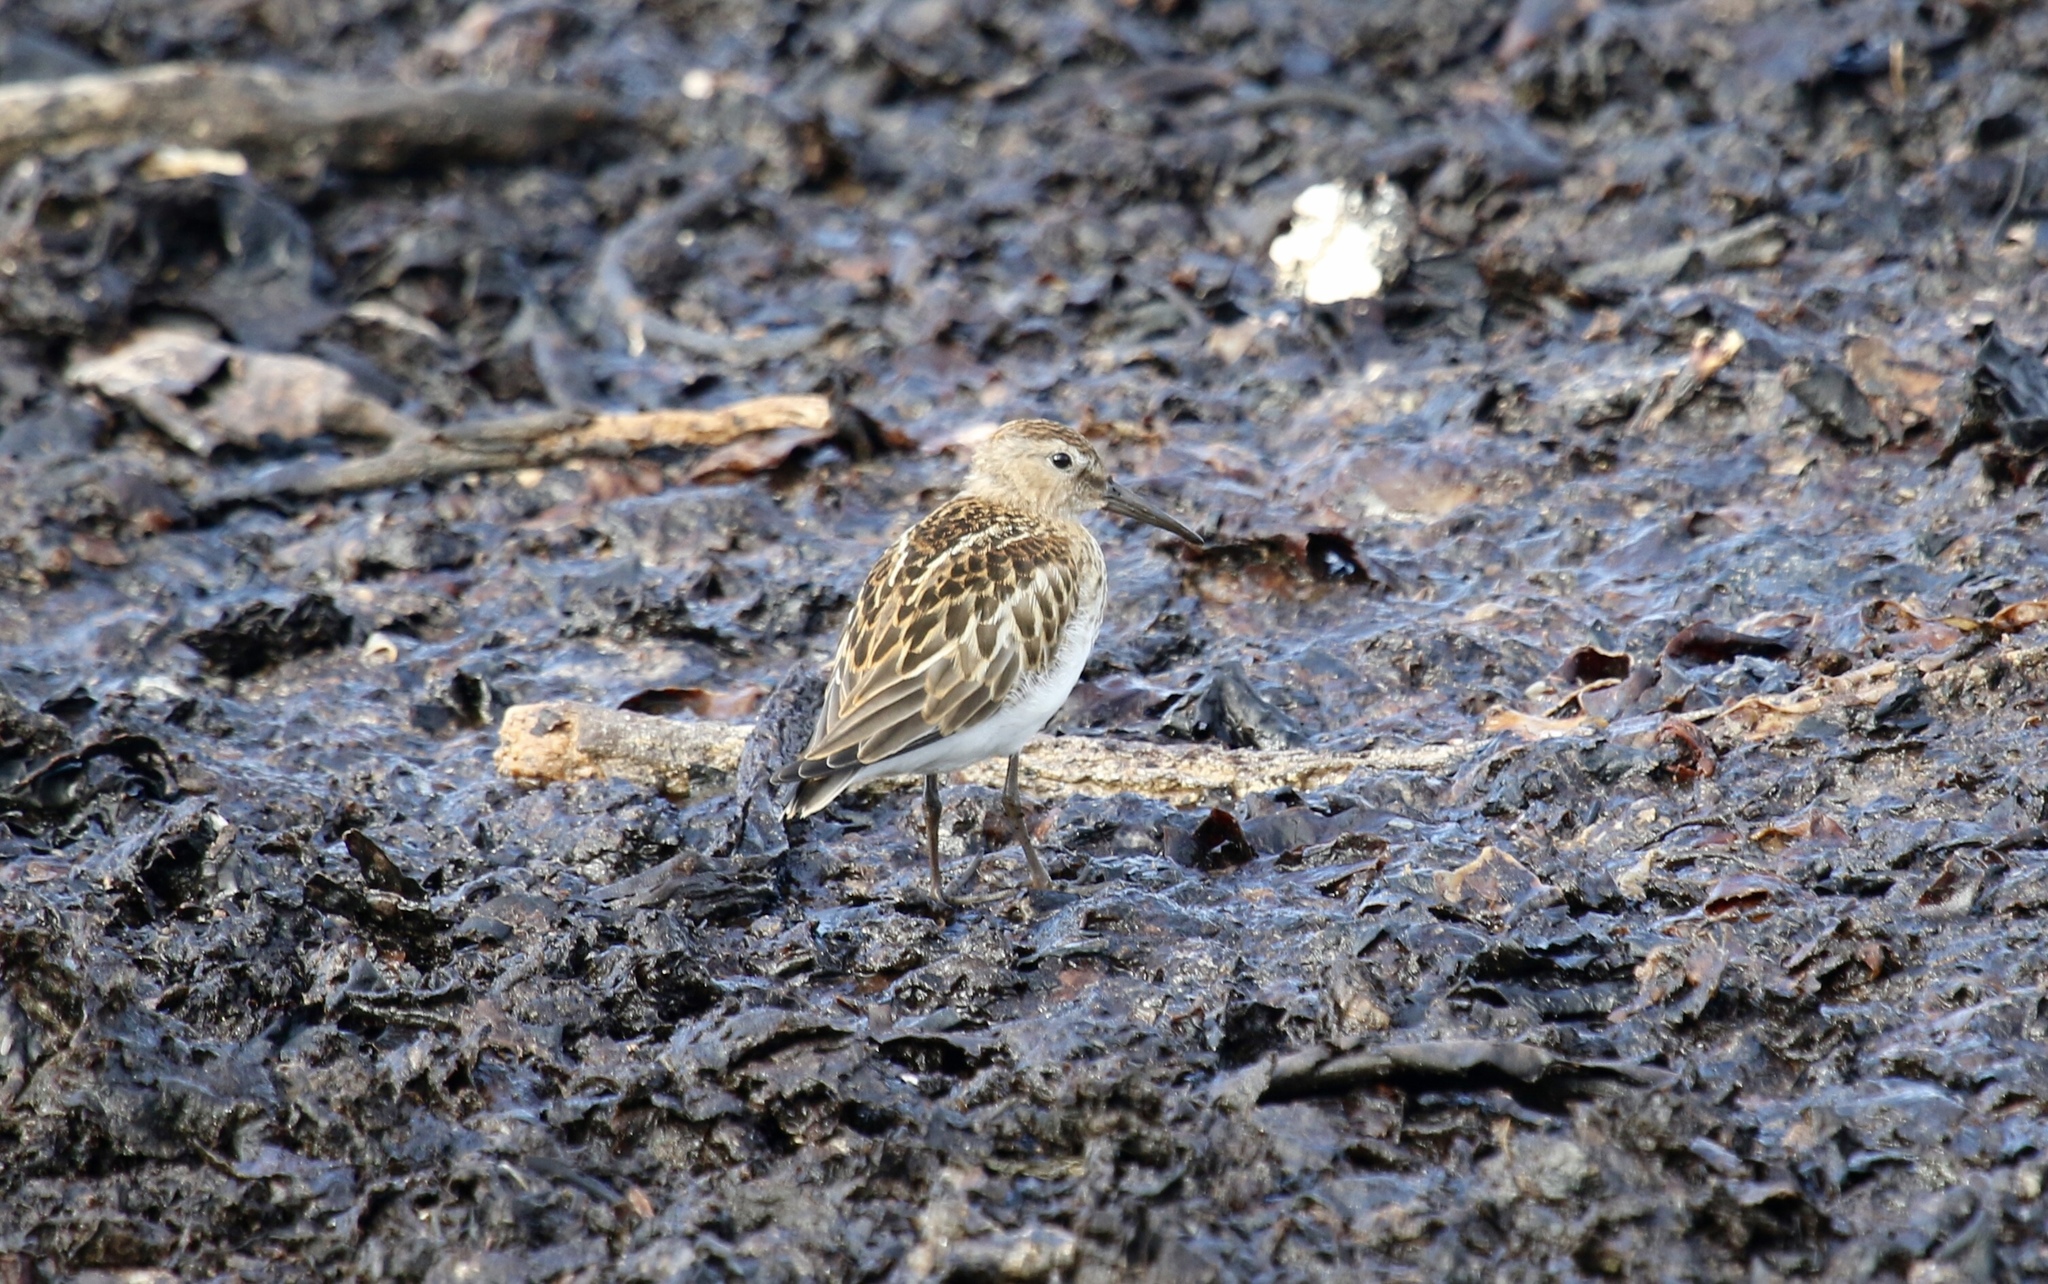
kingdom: Animalia
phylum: Chordata
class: Aves
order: Charadriiformes
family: Scolopacidae
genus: Calidris
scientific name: Calidris alpina
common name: Dunlin
